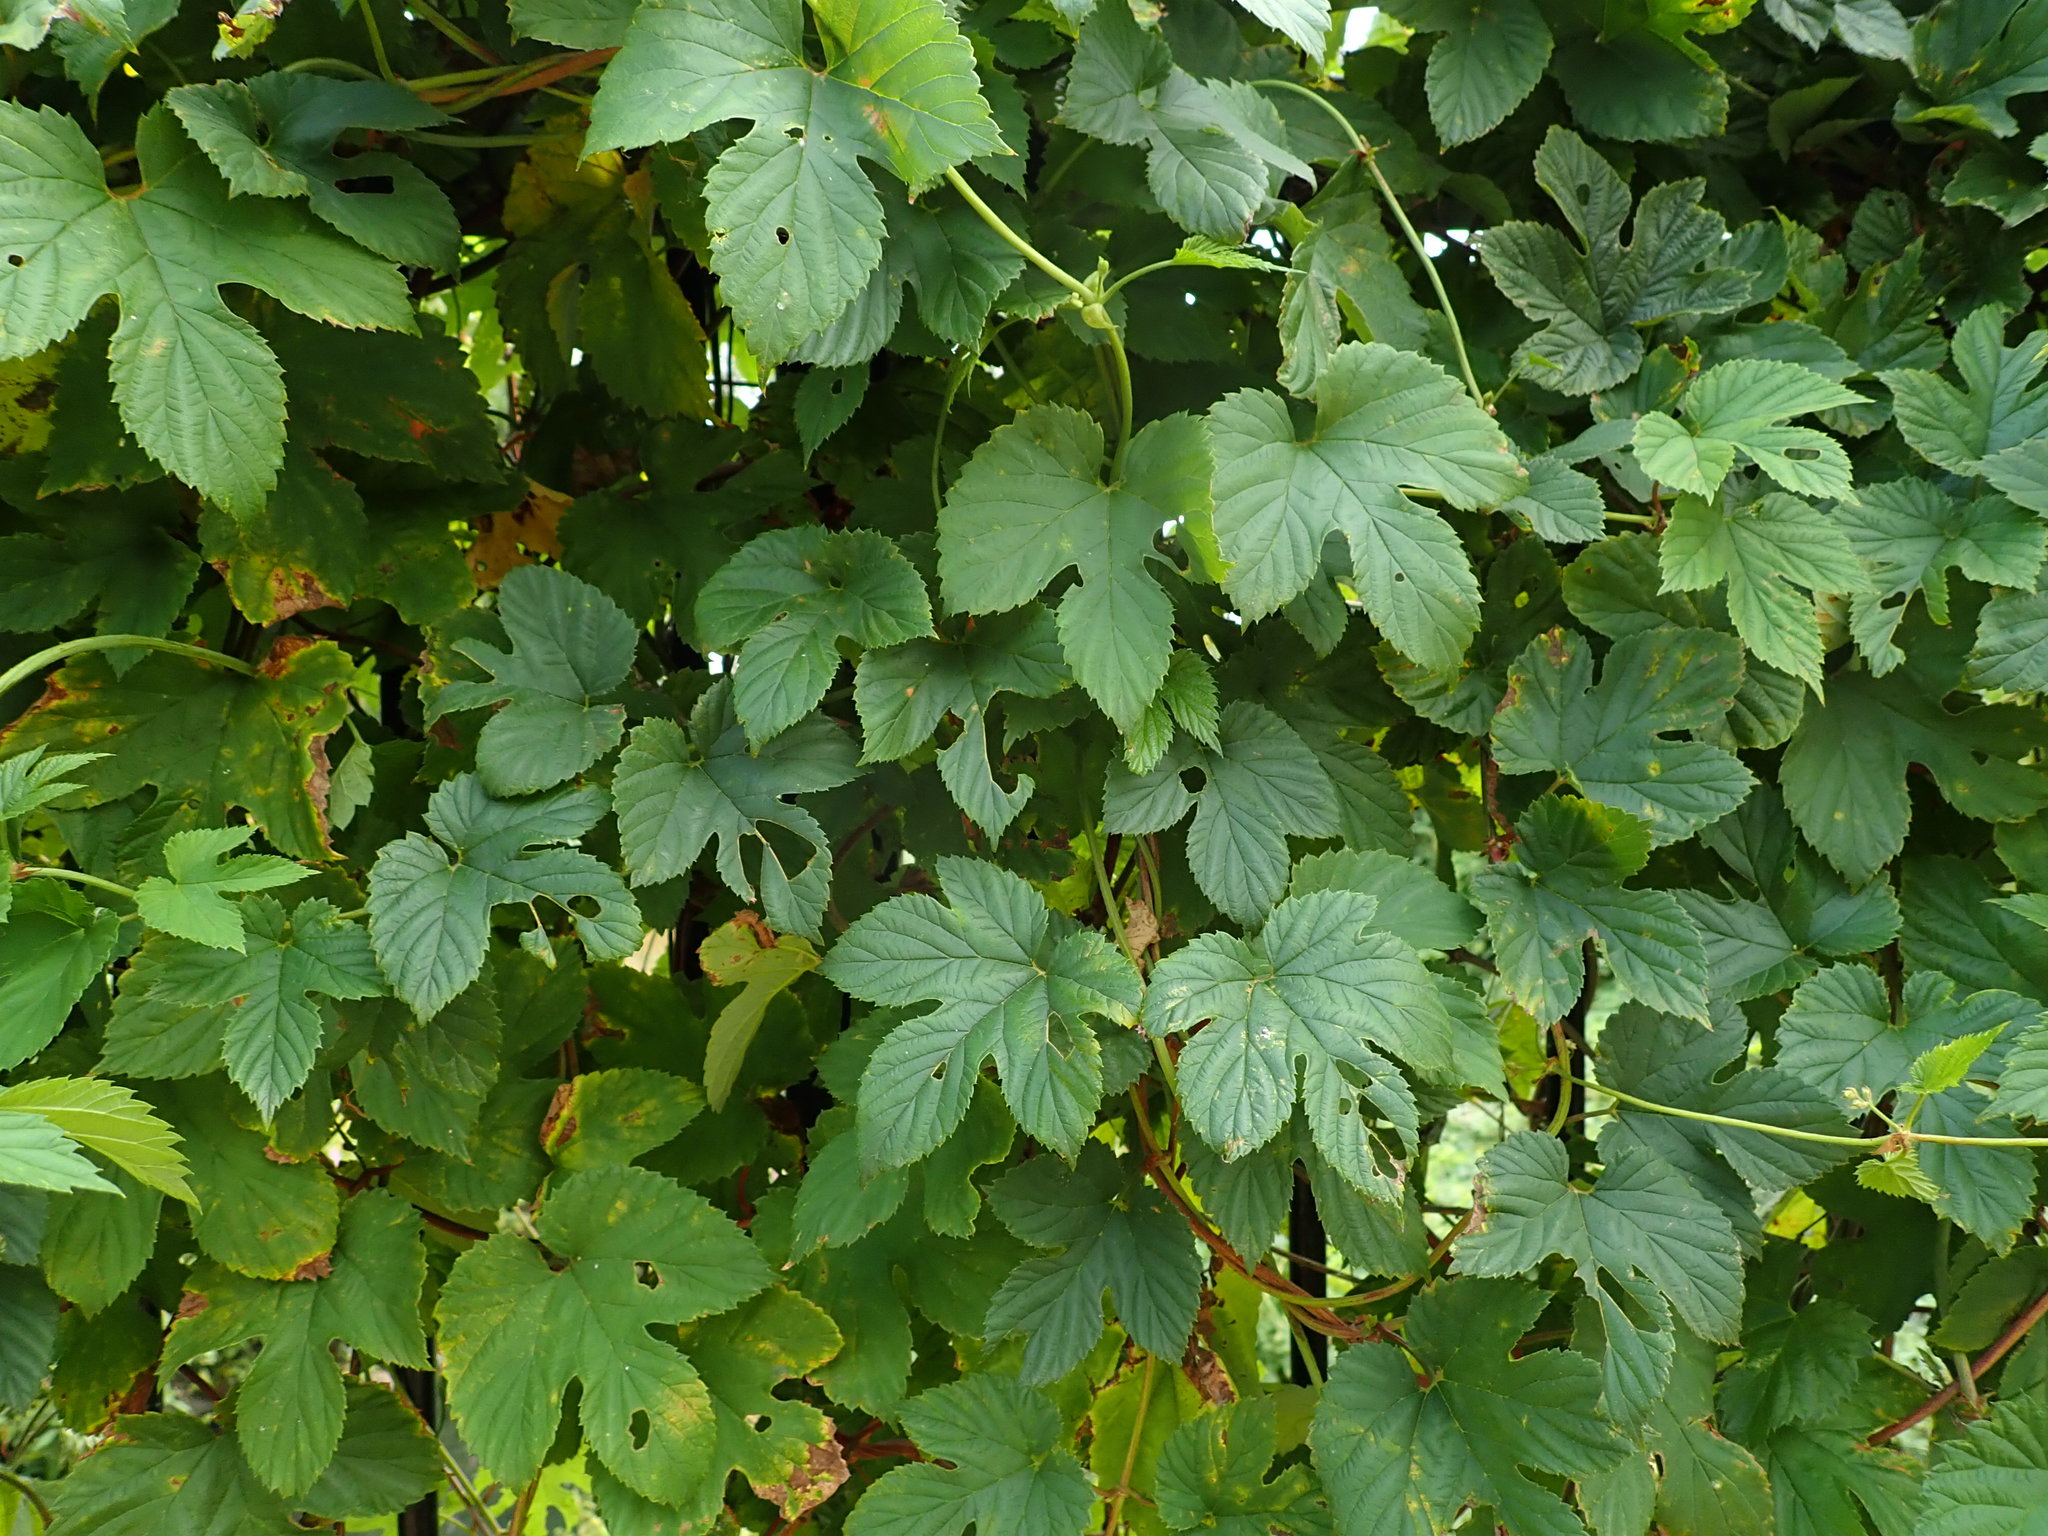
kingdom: Plantae
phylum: Tracheophyta
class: Magnoliopsida
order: Rosales
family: Cannabaceae
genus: Humulus
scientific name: Humulus lupulus
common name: Hop
